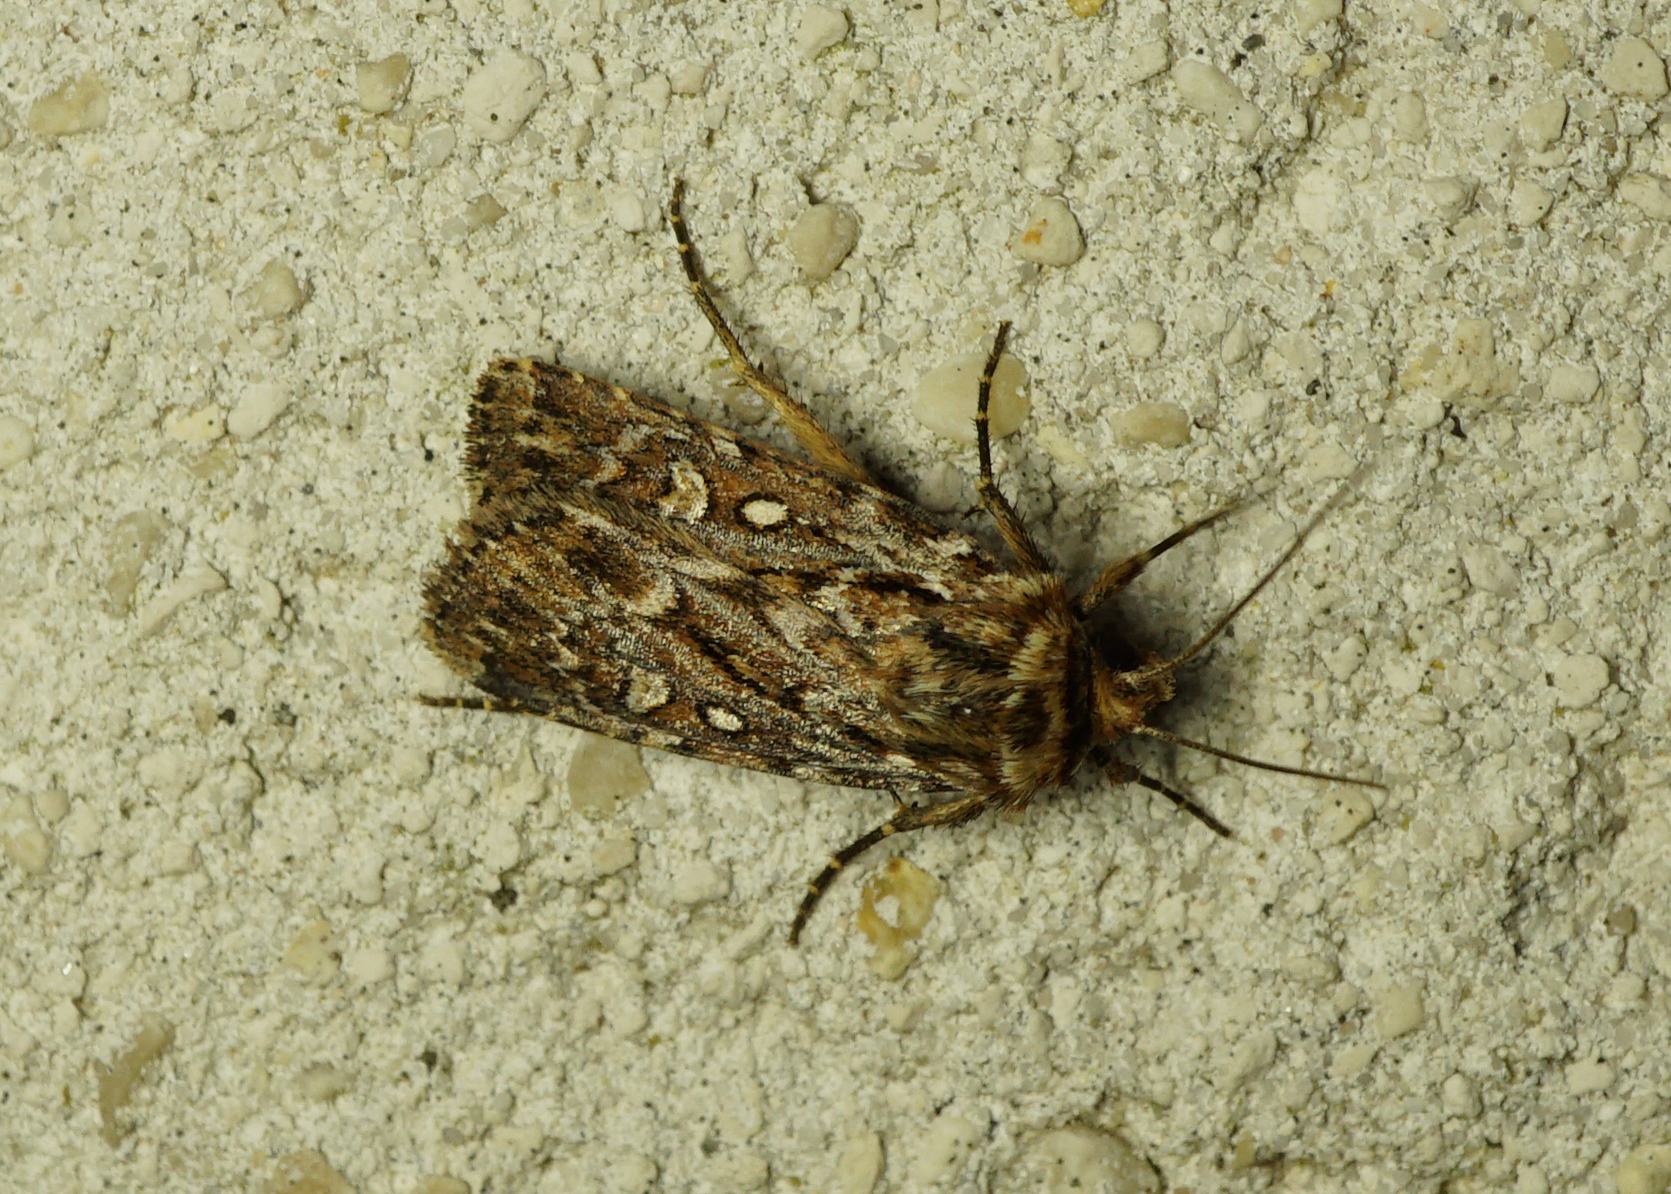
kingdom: Animalia
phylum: Arthropoda
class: Insecta
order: Lepidoptera
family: Noctuidae
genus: Lycophotia
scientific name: Lycophotia porphyrea
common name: True lover's knot
